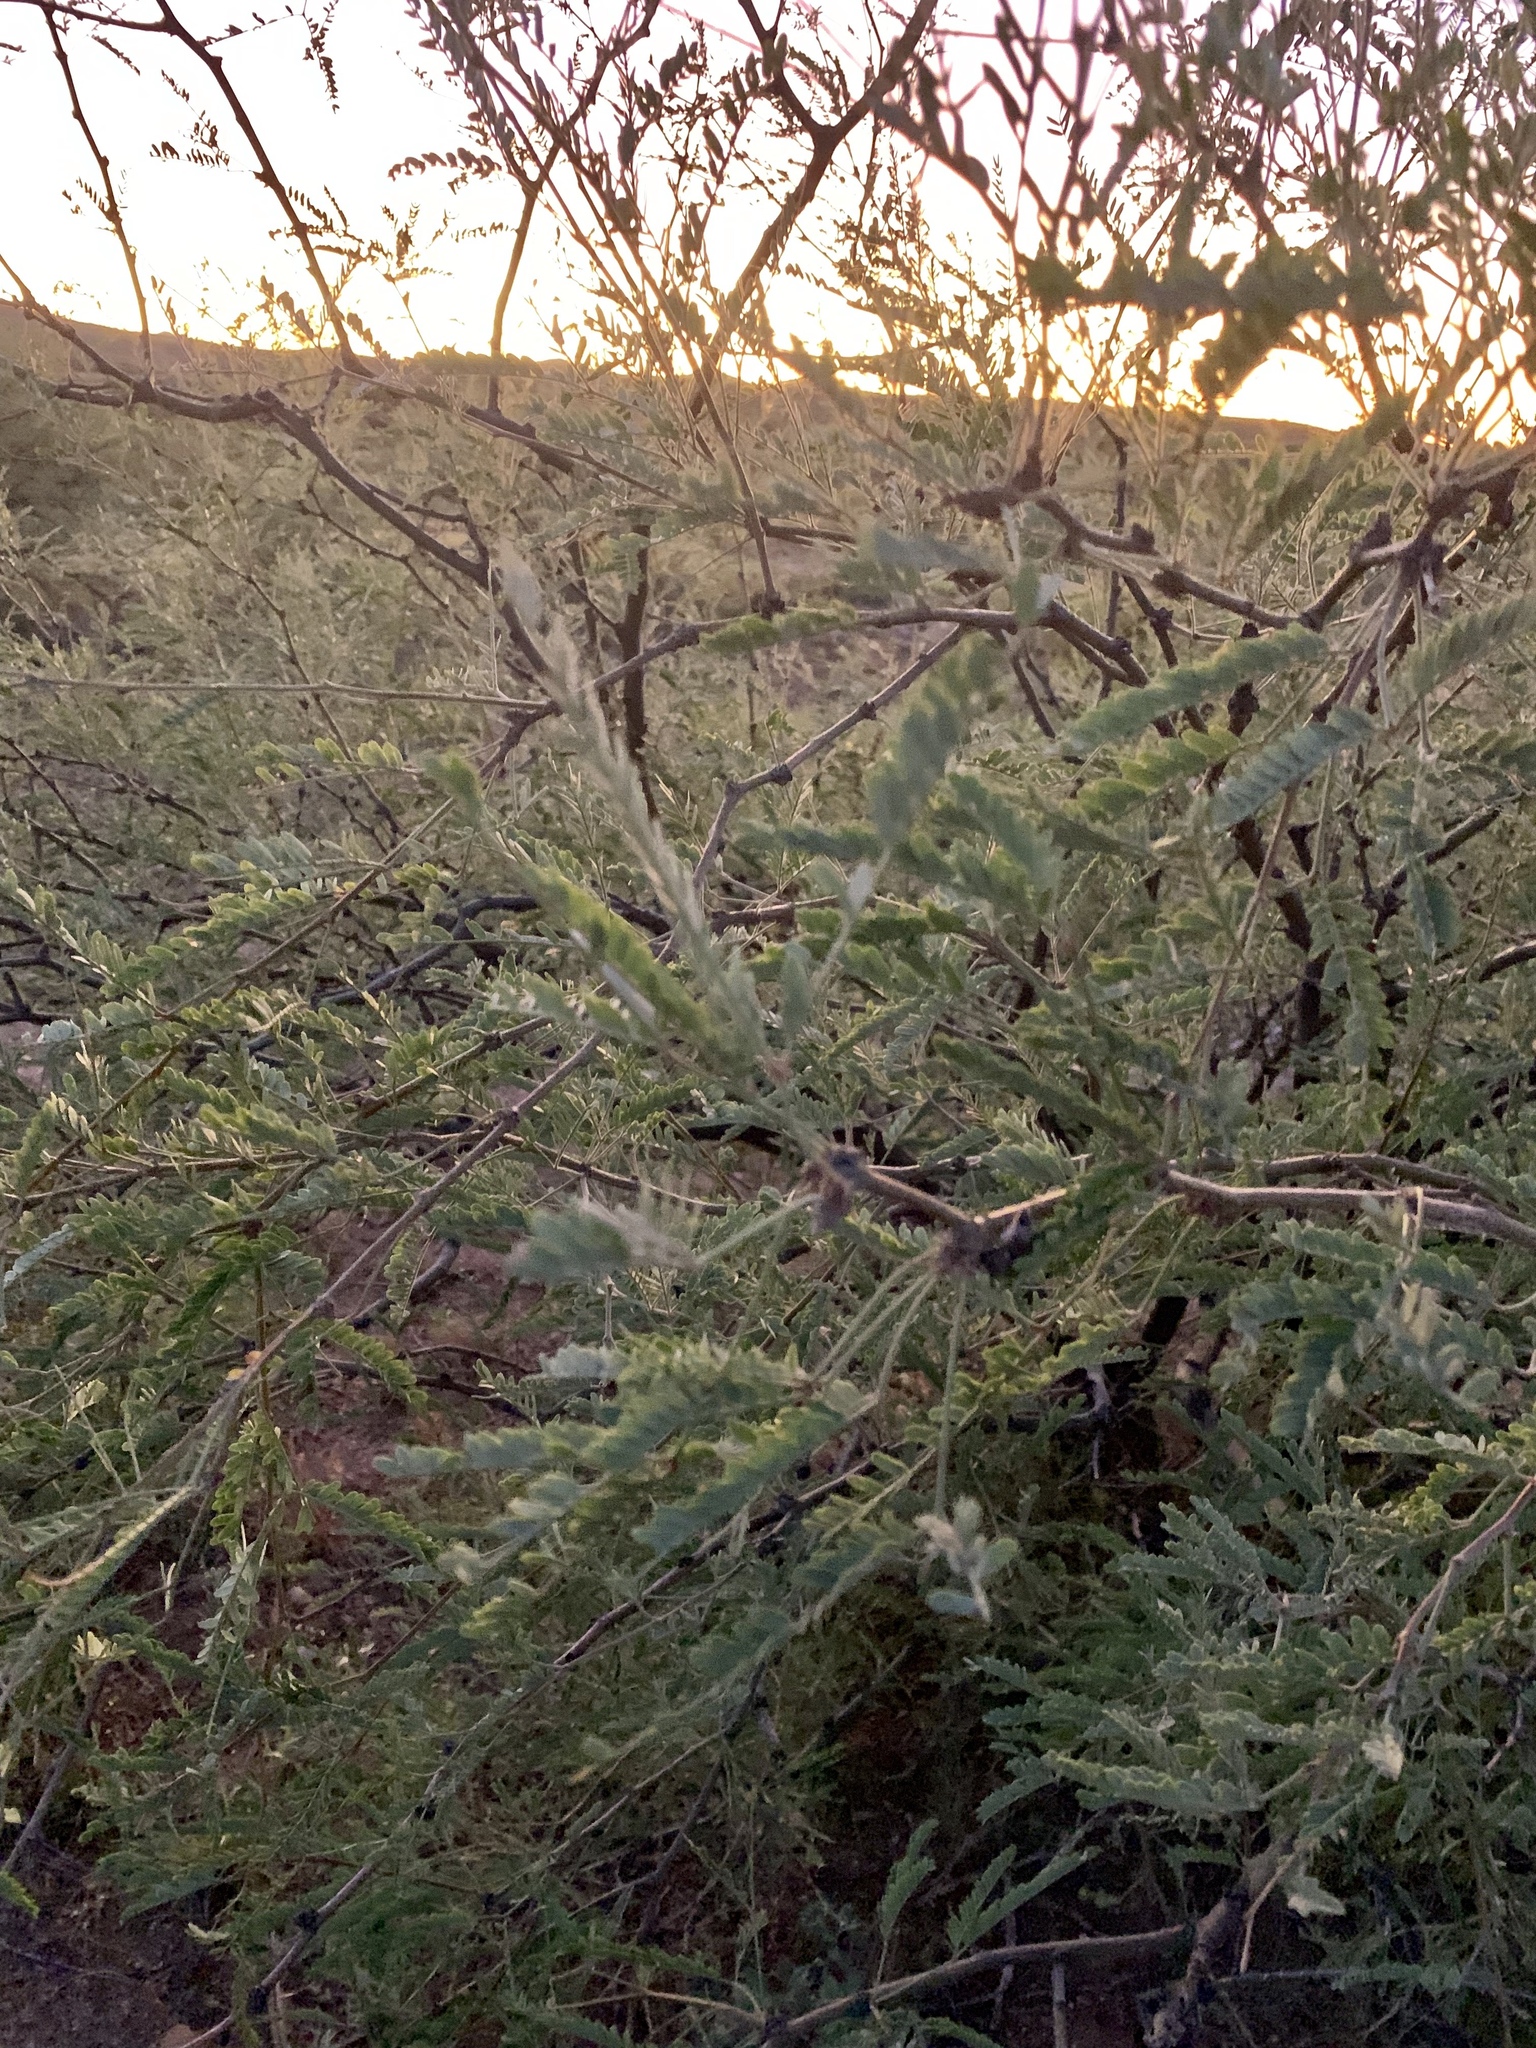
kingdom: Plantae
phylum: Tracheophyta
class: Magnoliopsida
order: Fabales
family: Fabaceae
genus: Prosopis
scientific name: Prosopis velutina
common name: Velvet mesquite
